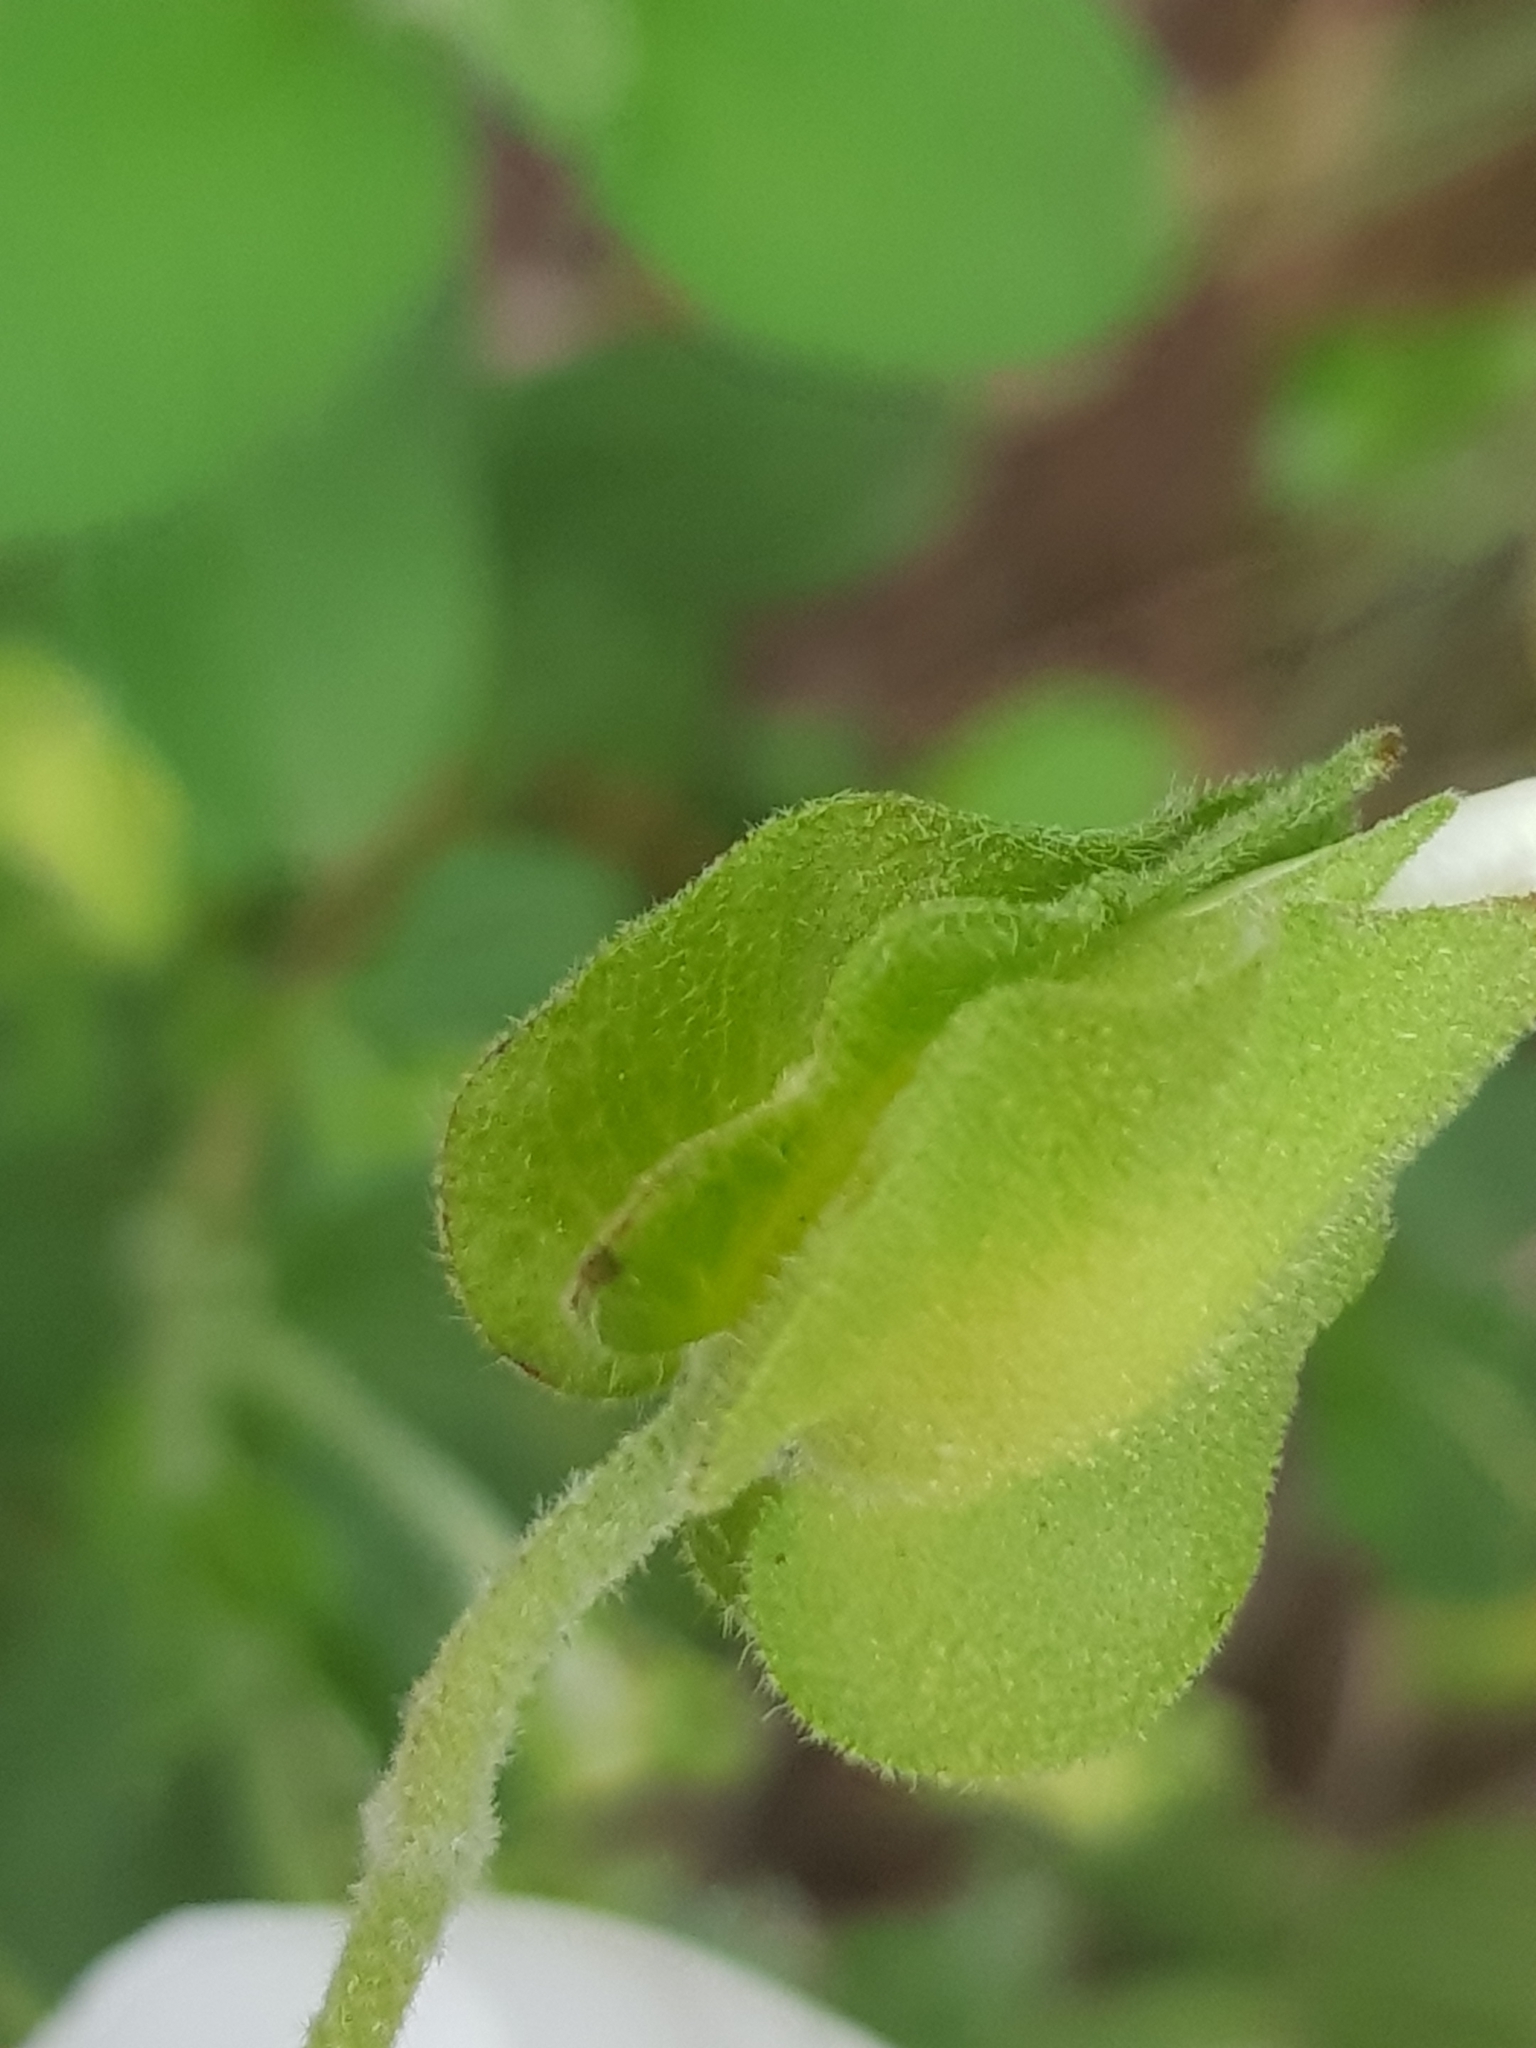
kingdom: Plantae
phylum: Tracheophyta
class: Magnoliopsida
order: Malvales
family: Cistaceae
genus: Cistus
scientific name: Cistus salviifolius
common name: Salvia cistus
